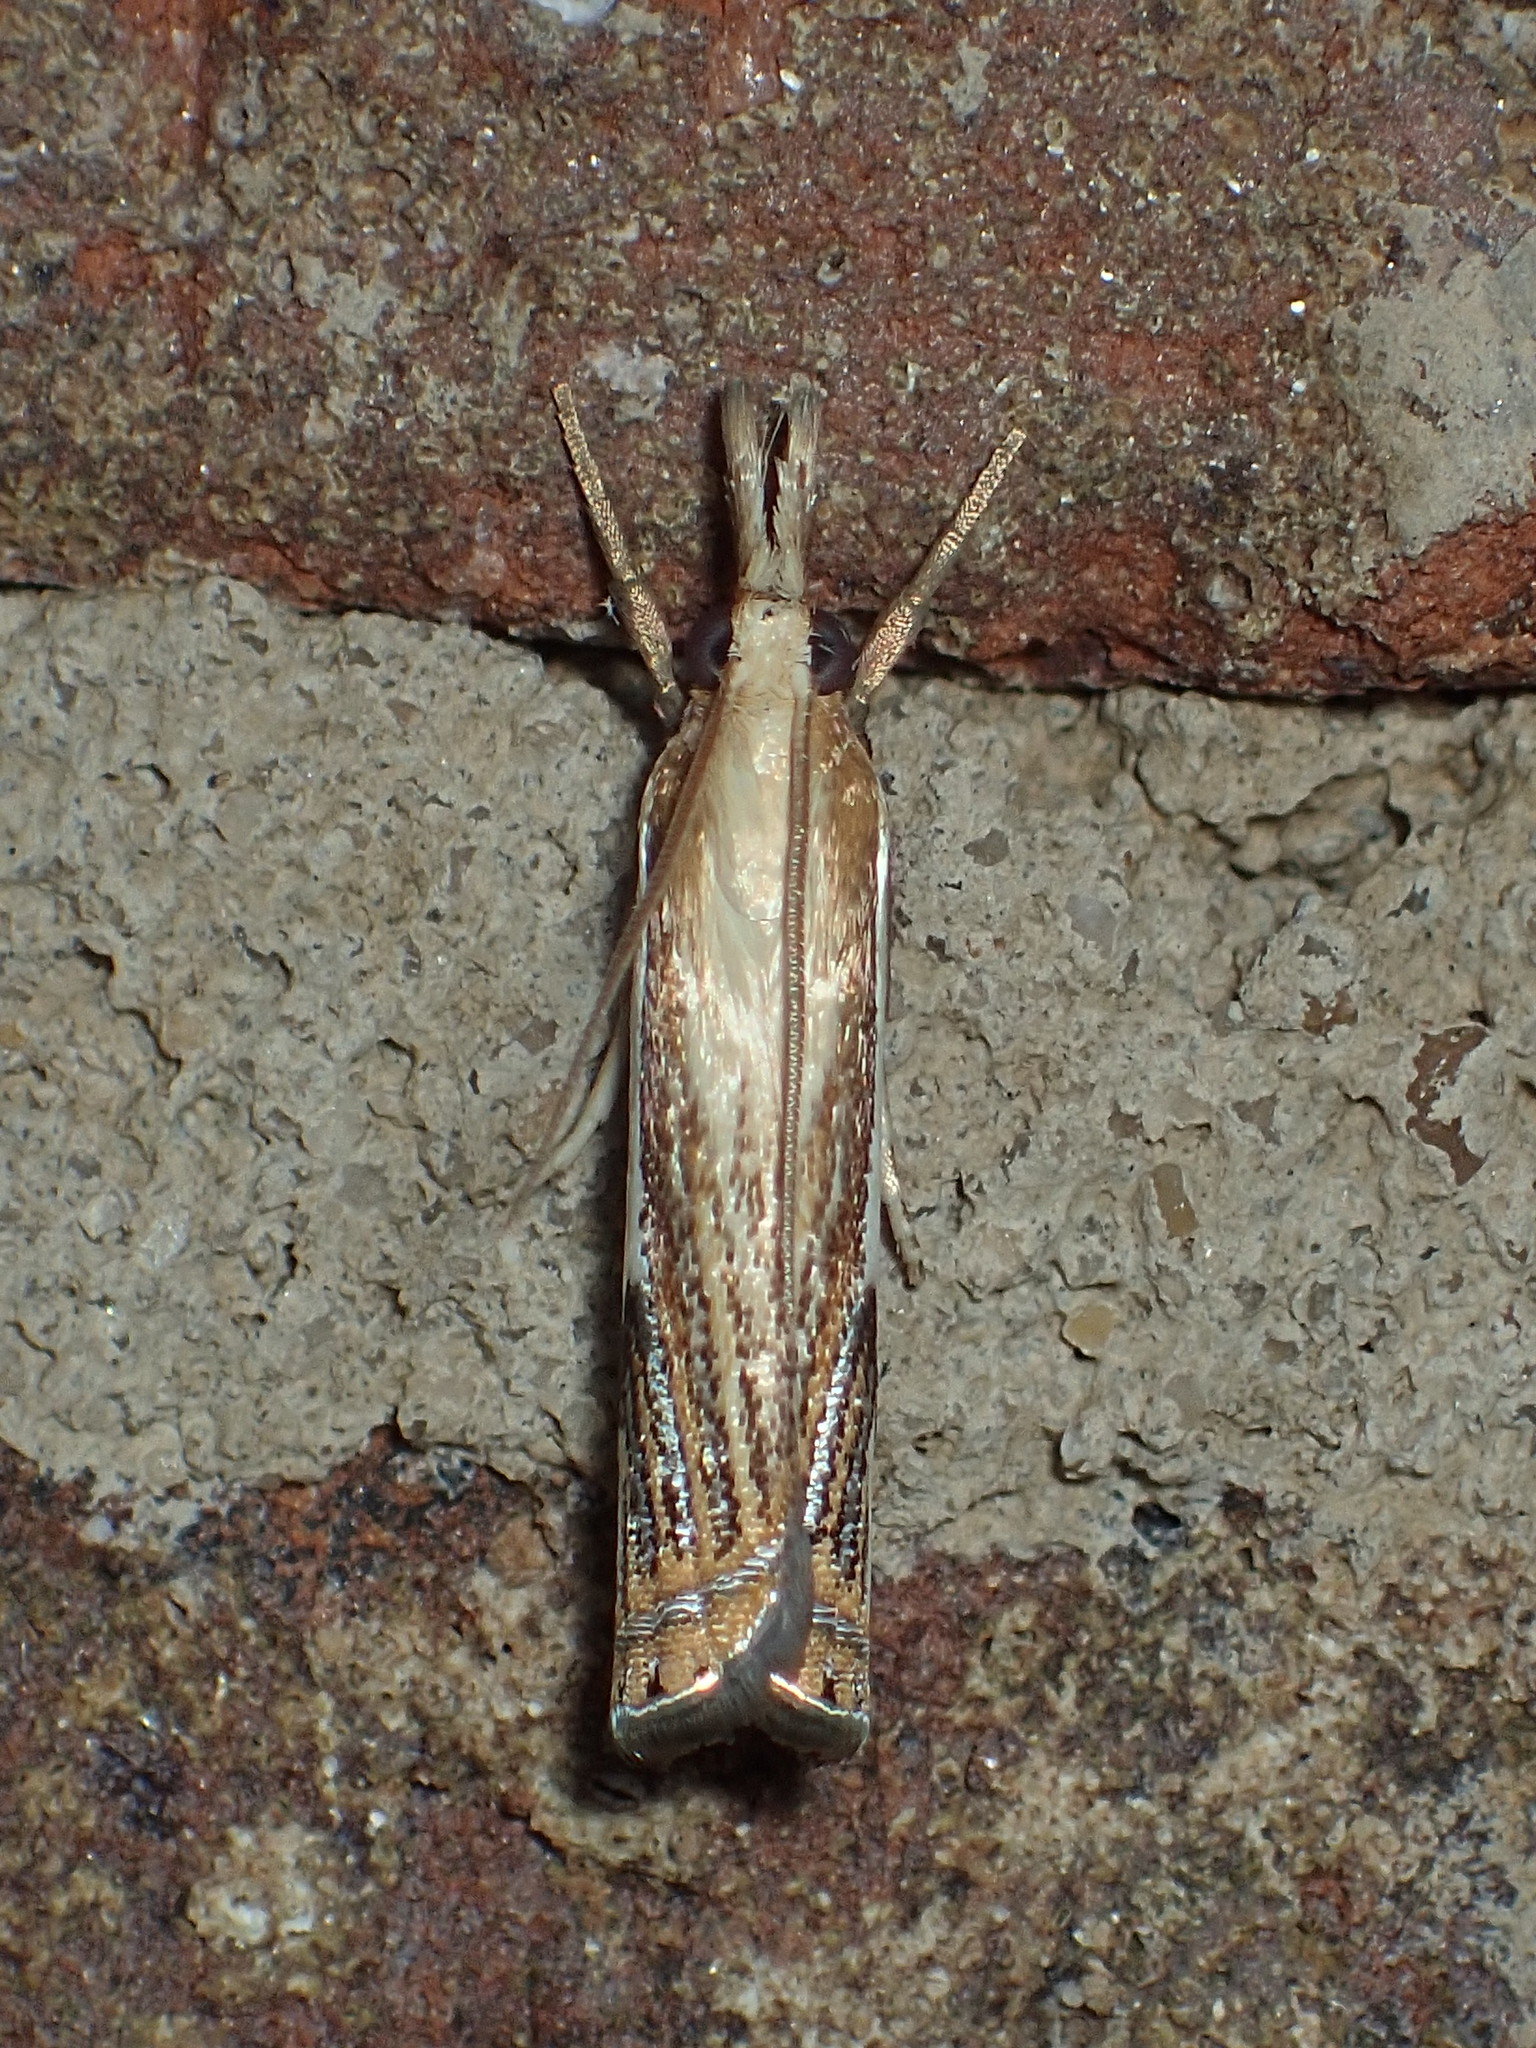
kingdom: Animalia
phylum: Arthropoda
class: Insecta
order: Lepidoptera
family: Crambidae
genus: Crambus
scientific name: Crambus saltuellus
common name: Pasture grass-veneer
